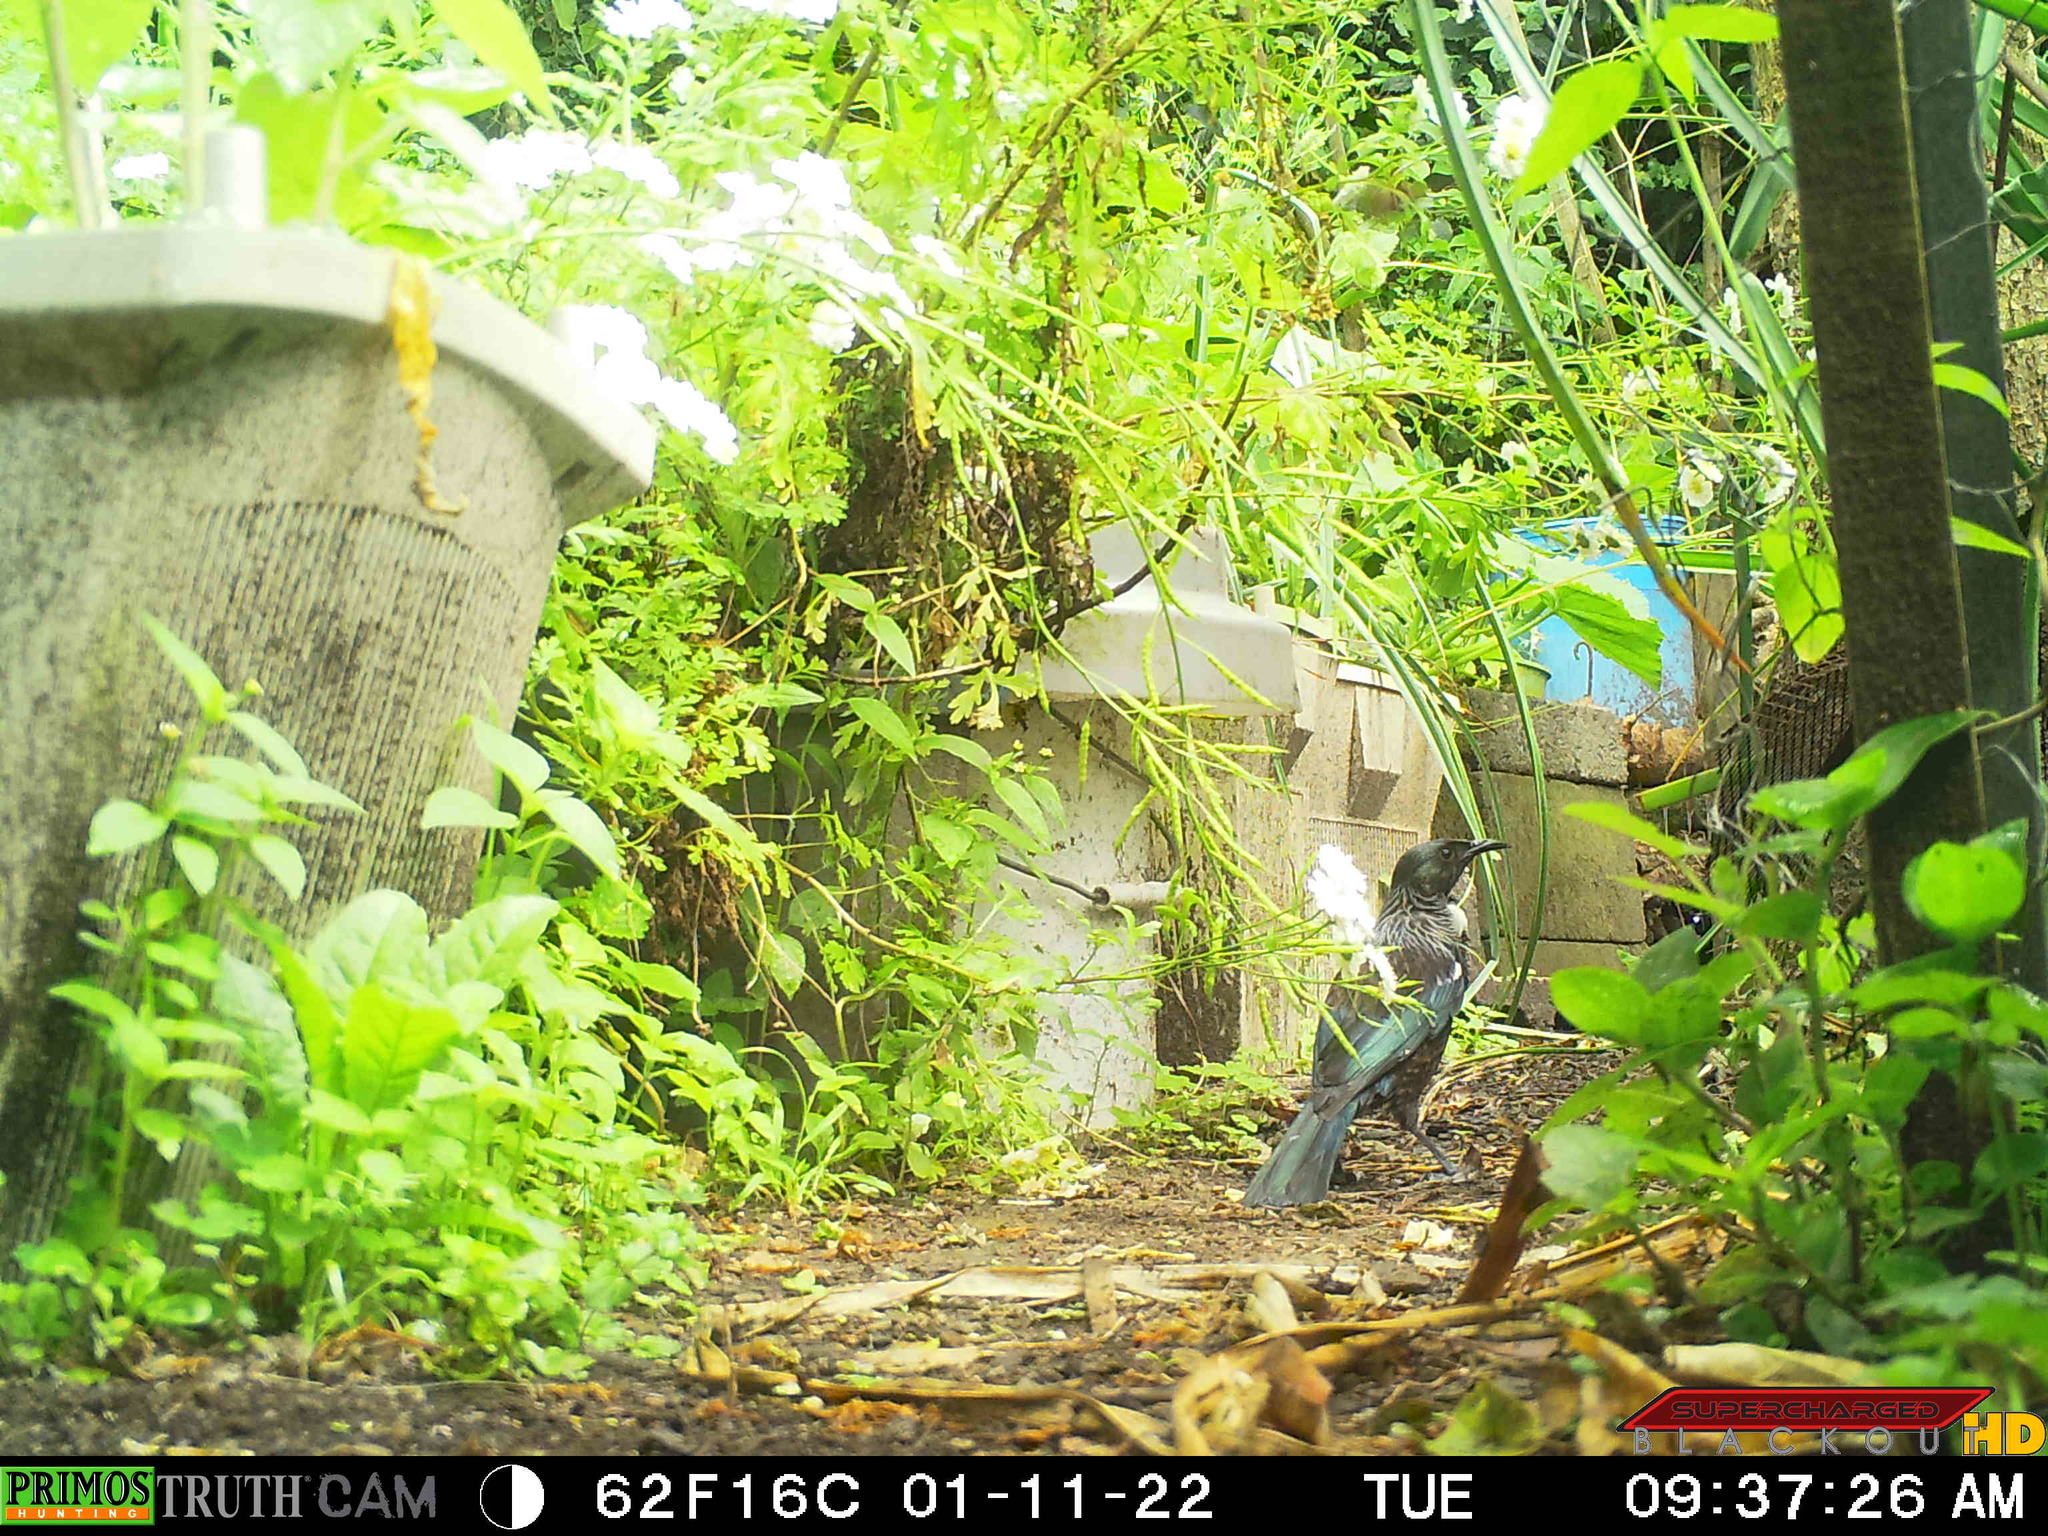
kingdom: Animalia
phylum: Chordata
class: Aves
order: Passeriformes
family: Meliphagidae
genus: Prosthemadera
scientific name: Prosthemadera novaeseelandiae
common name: Tui
